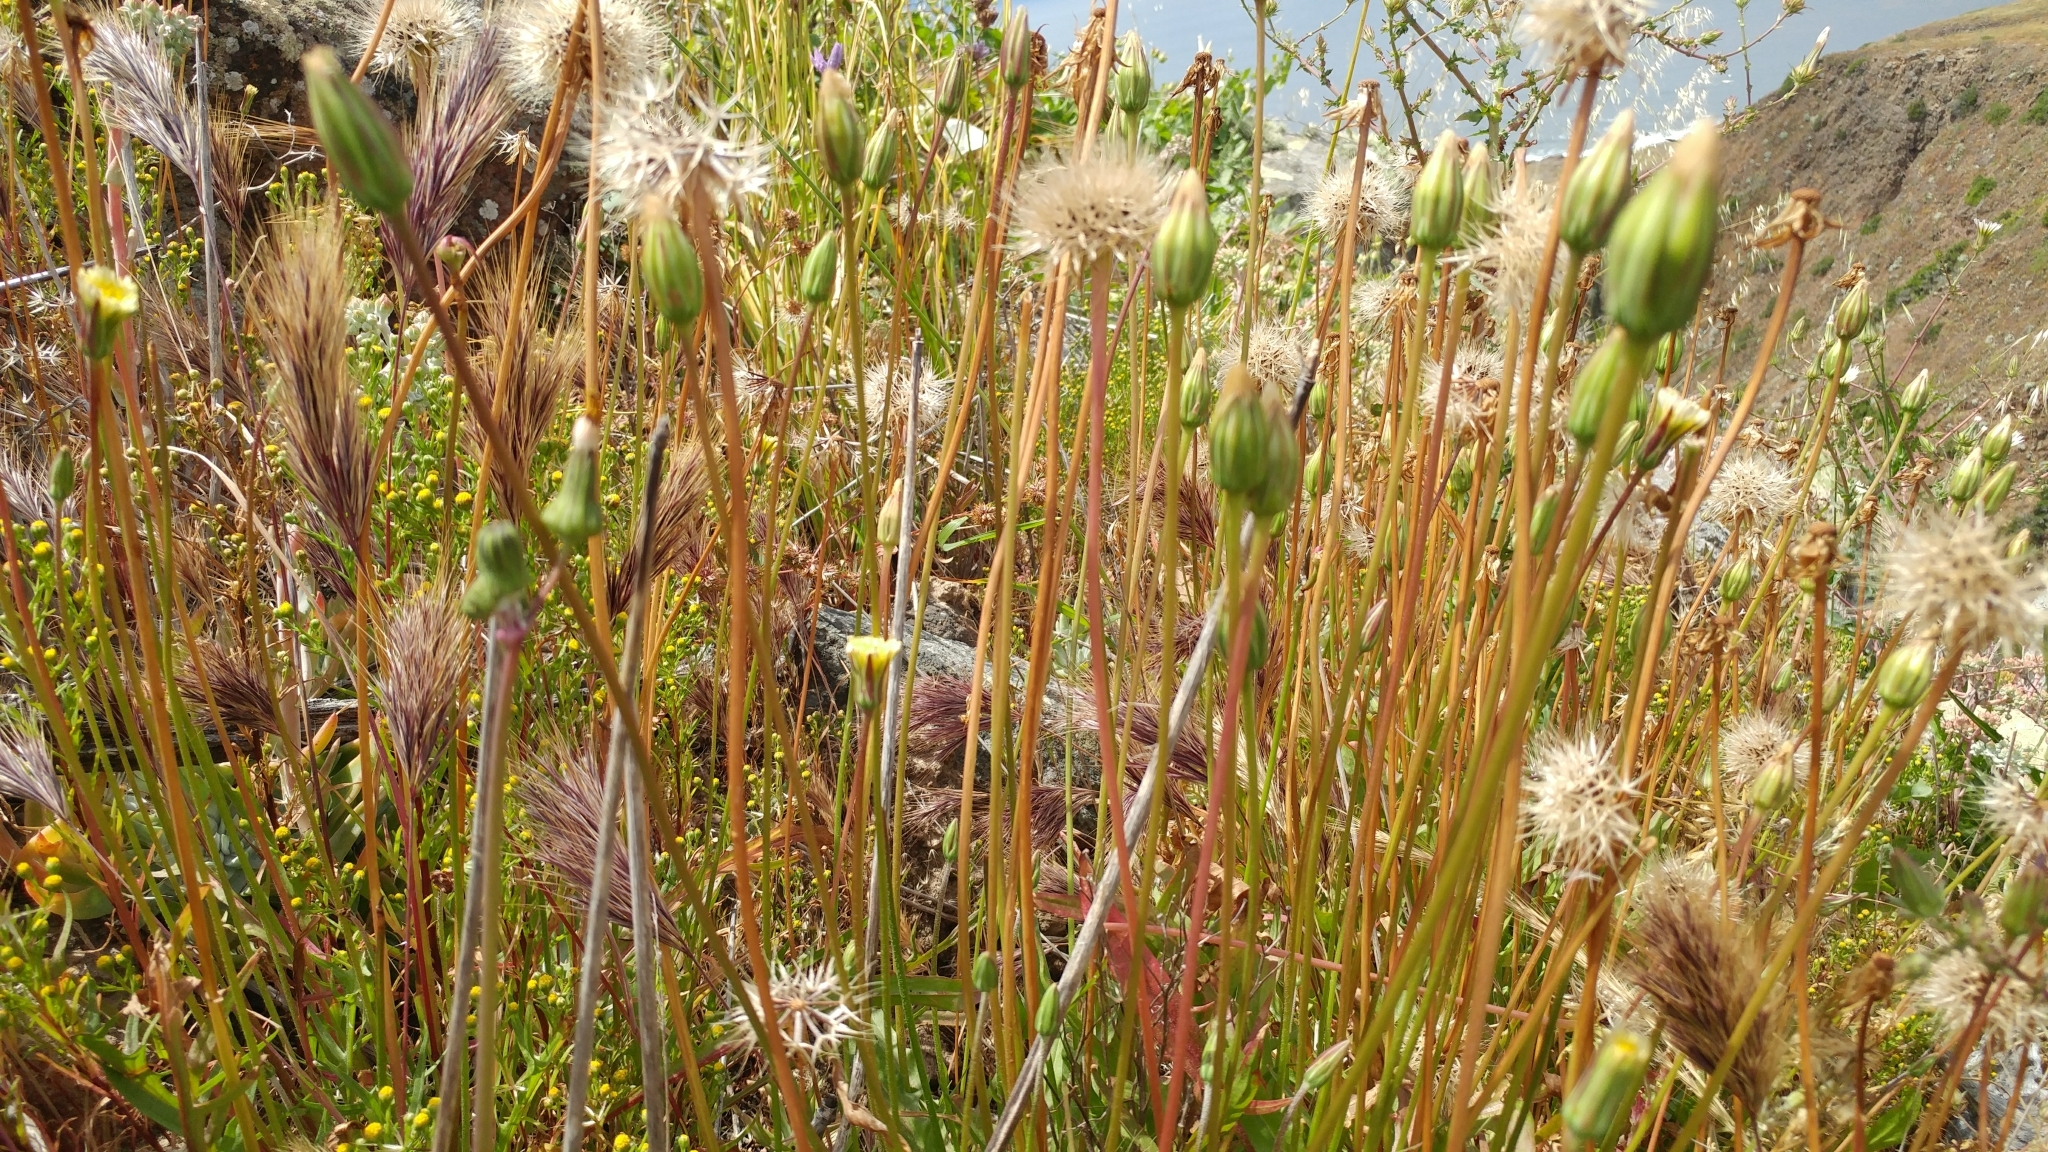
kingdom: Plantae
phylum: Tracheophyta
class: Magnoliopsida
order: Asterales
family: Asteraceae
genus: Microseris
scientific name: Microseris heterocarpa
